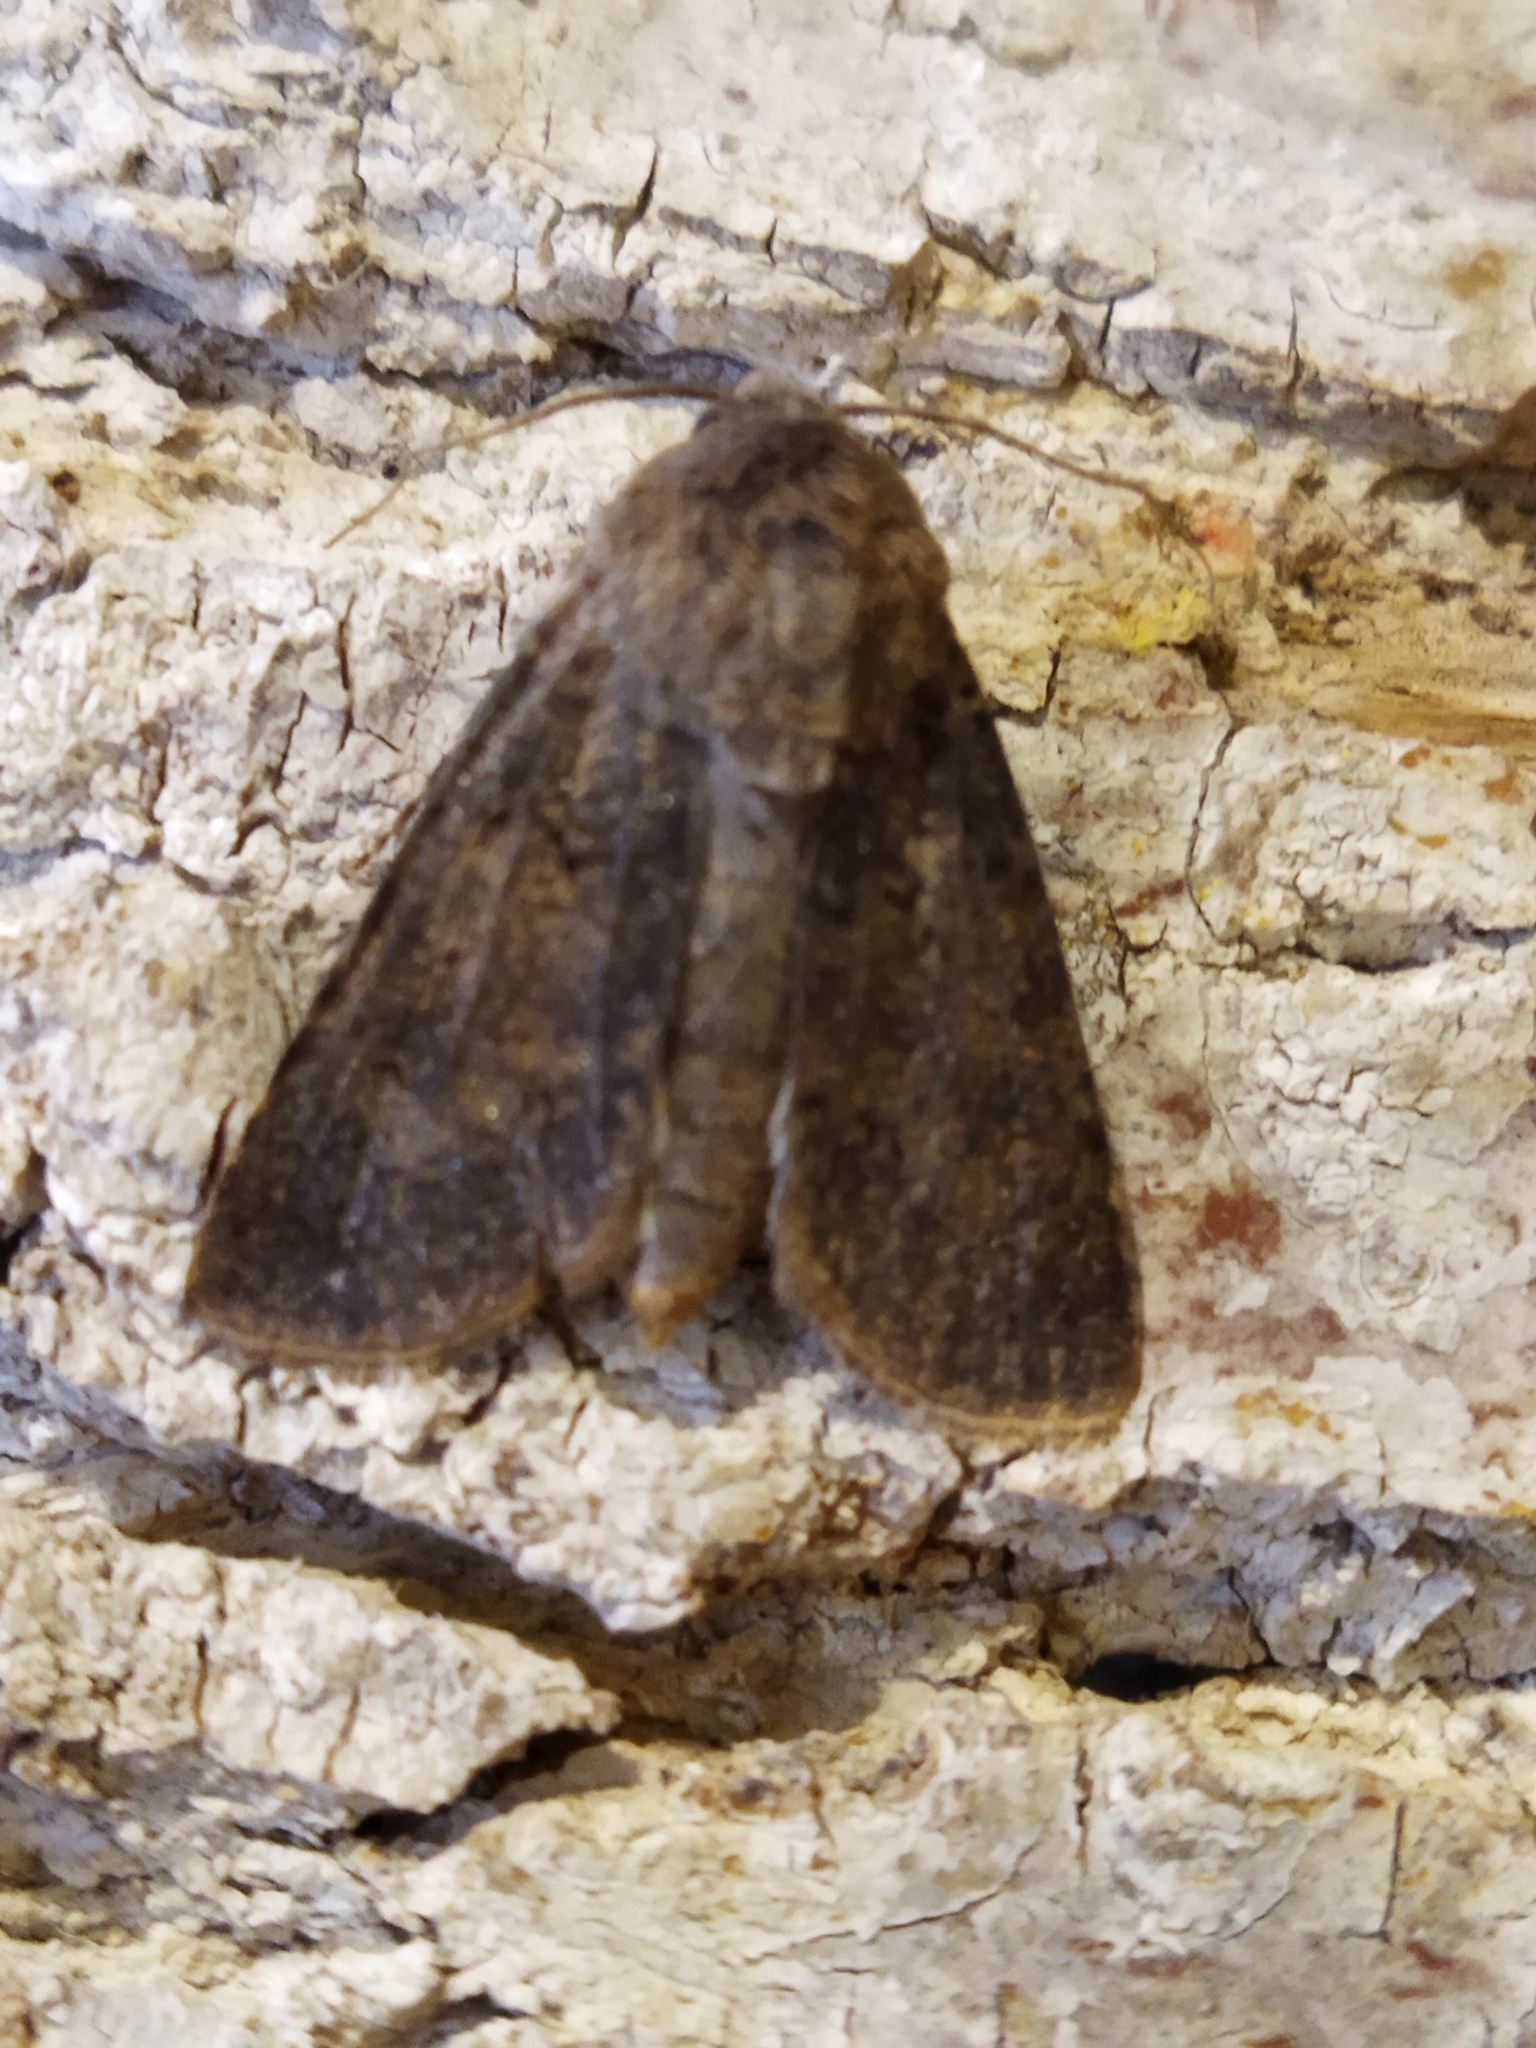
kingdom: Animalia
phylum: Arthropoda
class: Insecta
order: Lepidoptera
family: Noctuidae
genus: Agrotis
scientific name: Agrotis segetum
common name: Turnip moth
